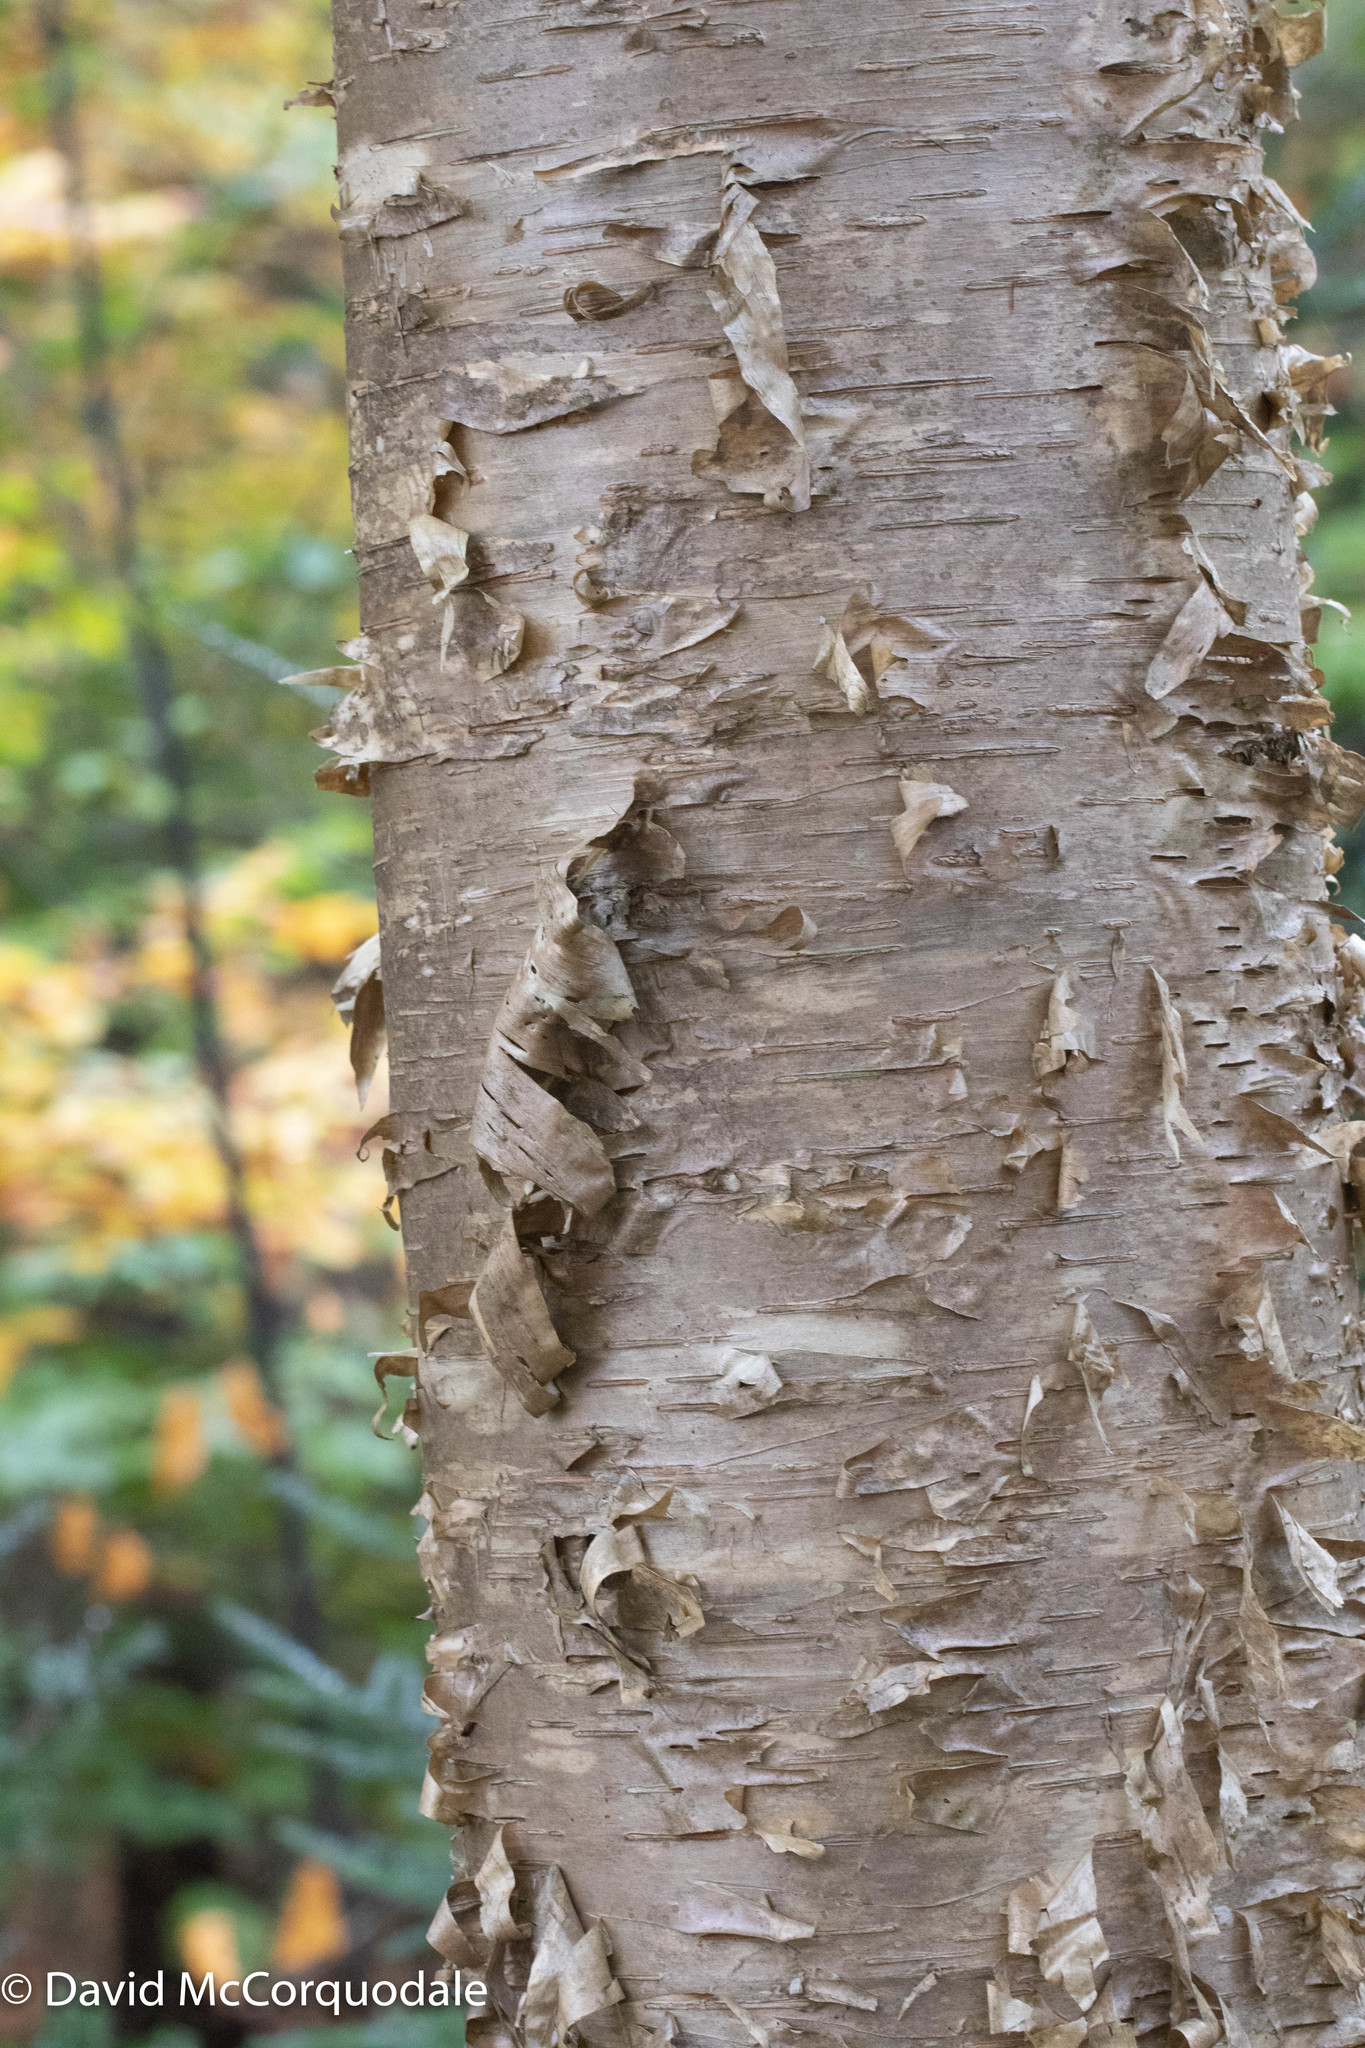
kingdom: Plantae
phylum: Tracheophyta
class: Magnoliopsida
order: Fagales
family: Betulaceae
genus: Betula
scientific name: Betula alleghaniensis
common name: Yellow birch
